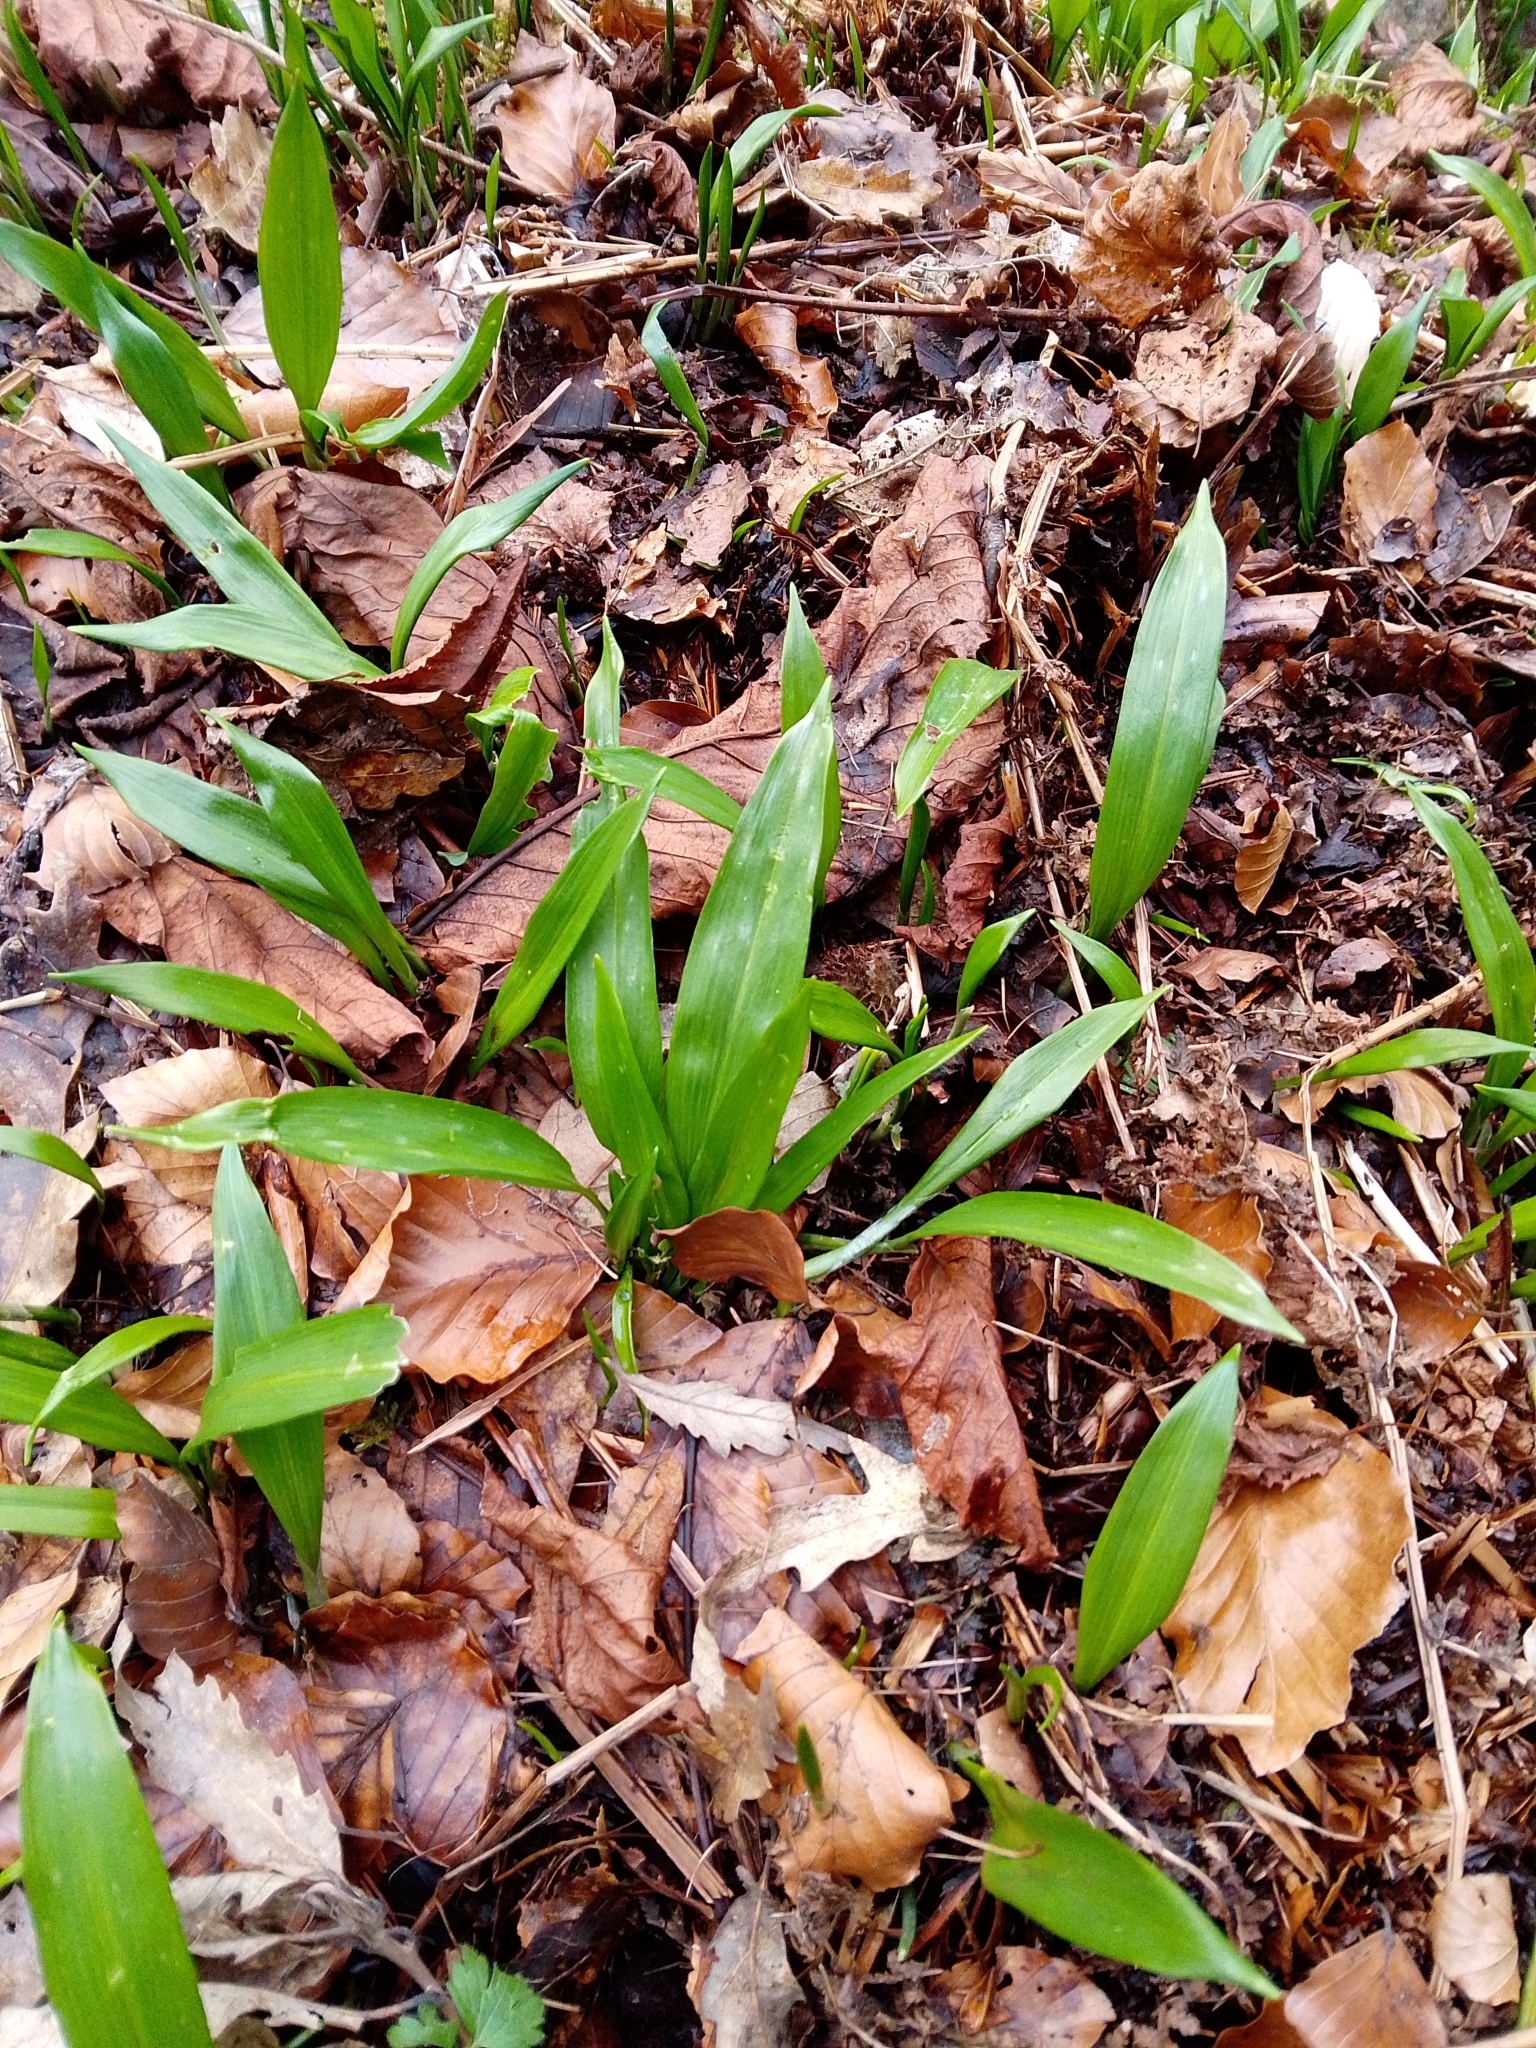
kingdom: Plantae
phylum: Tracheophyta
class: Liliopsida
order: Asparagales
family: Amaryllidaceae
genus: Allium
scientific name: Allium ursinum
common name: Ramsons
